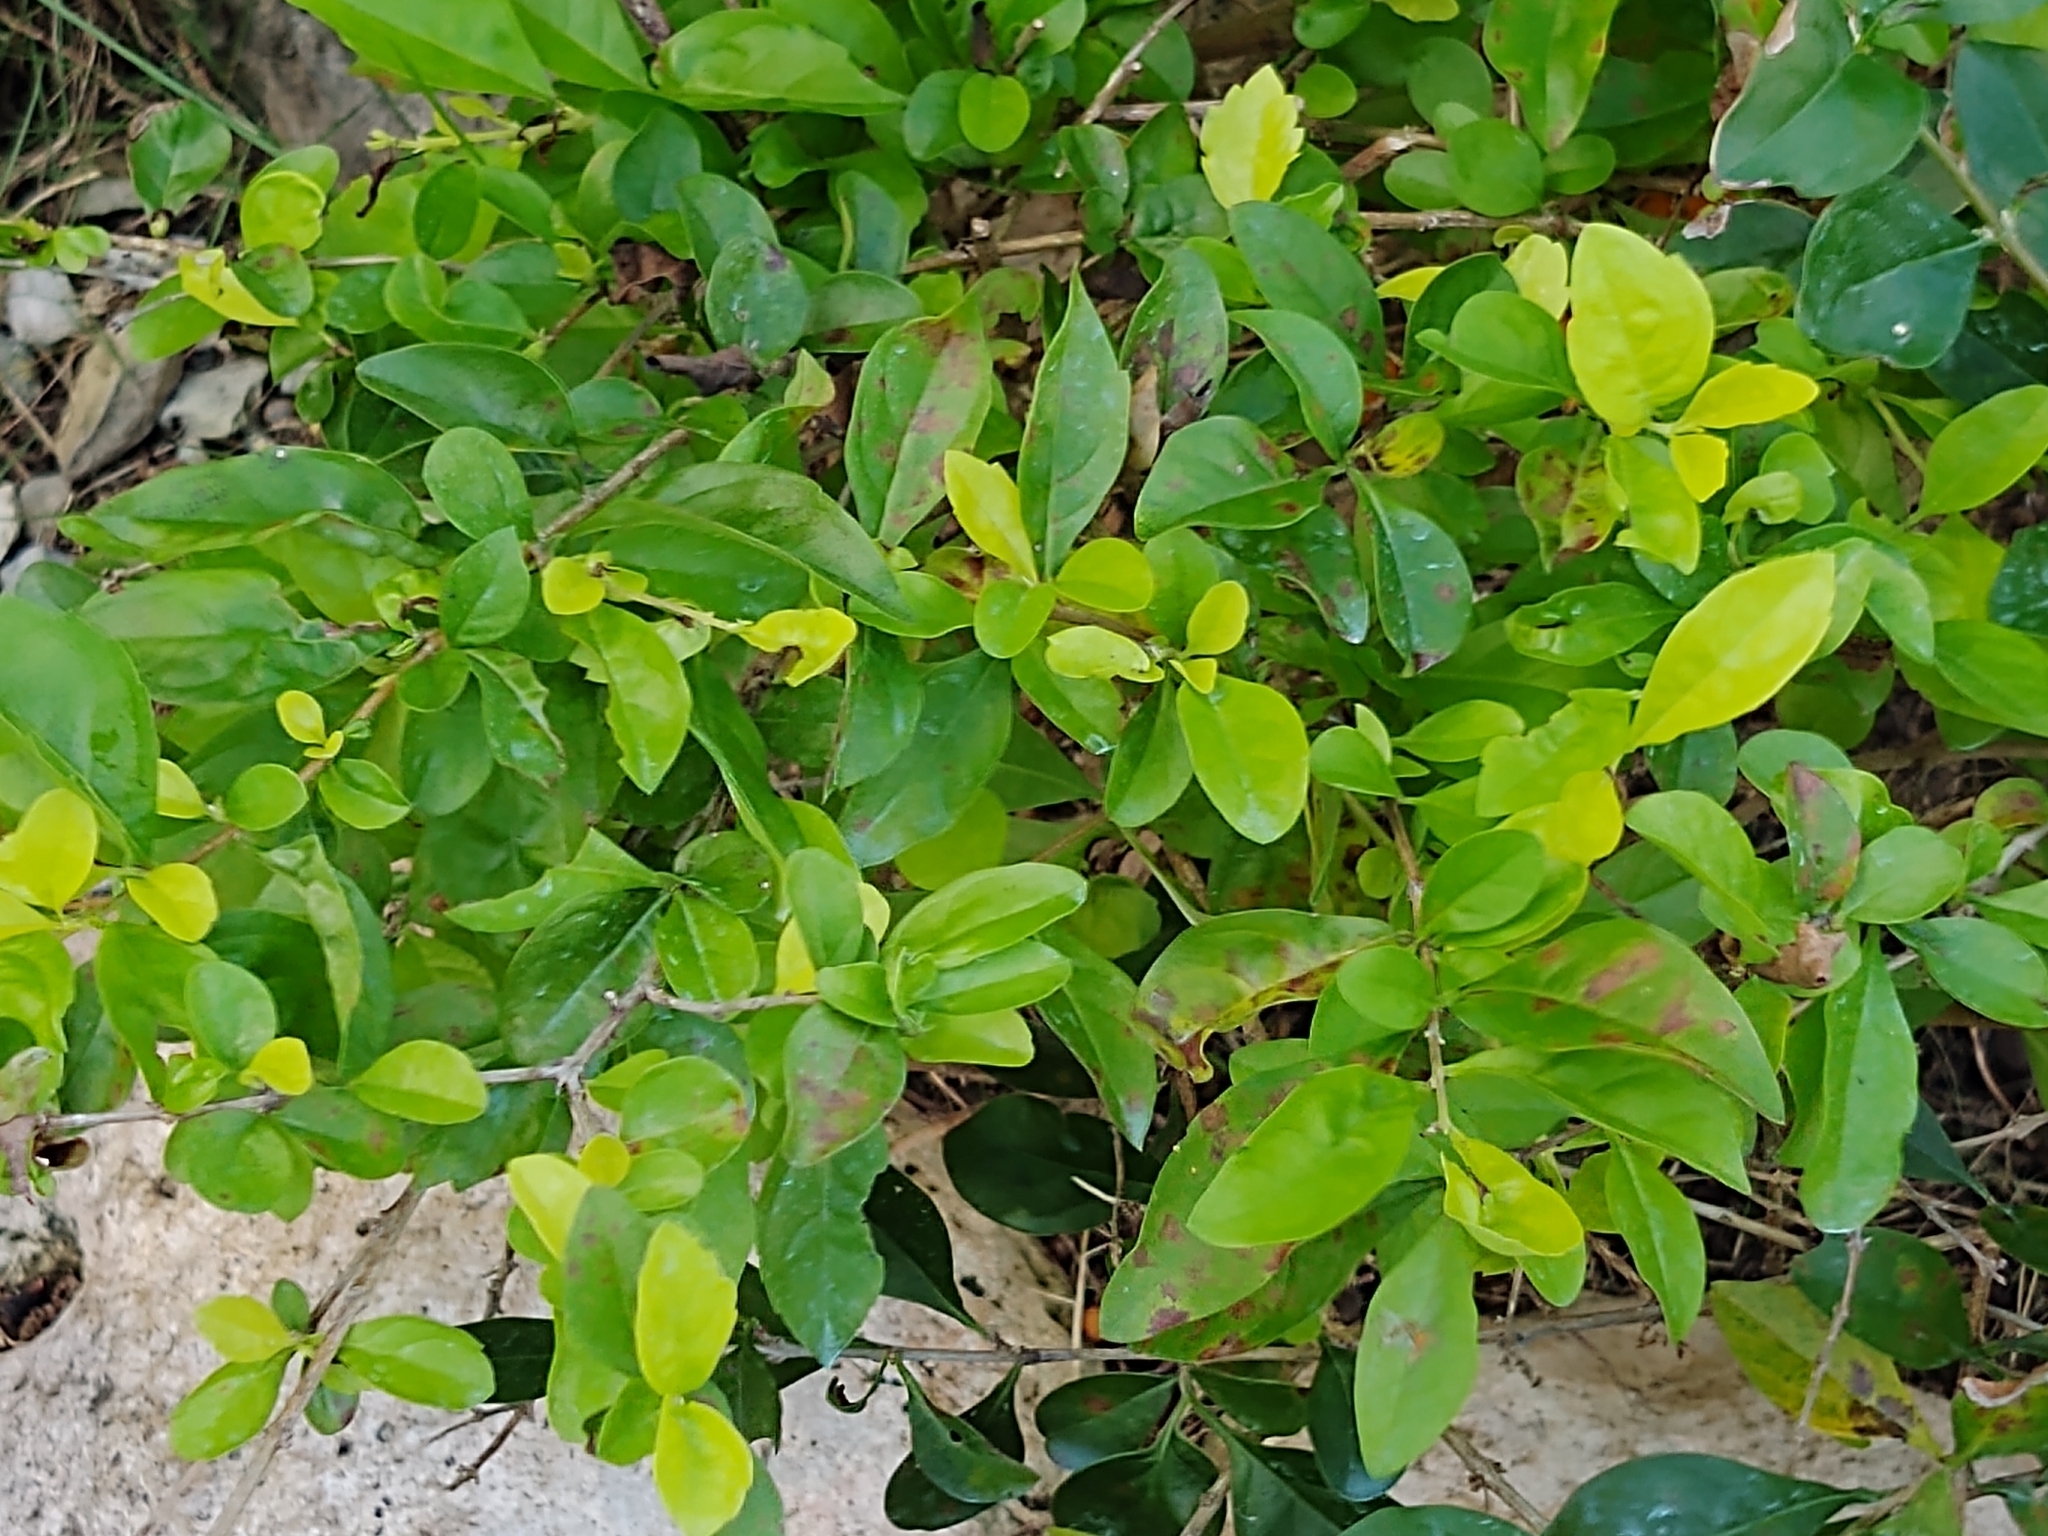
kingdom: Plantae
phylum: Tracheophyta
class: Magnoliopsida
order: Lamiales
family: Verbenaceae
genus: Duranta
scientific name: Duranta erecta
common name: Golden dewdrops
